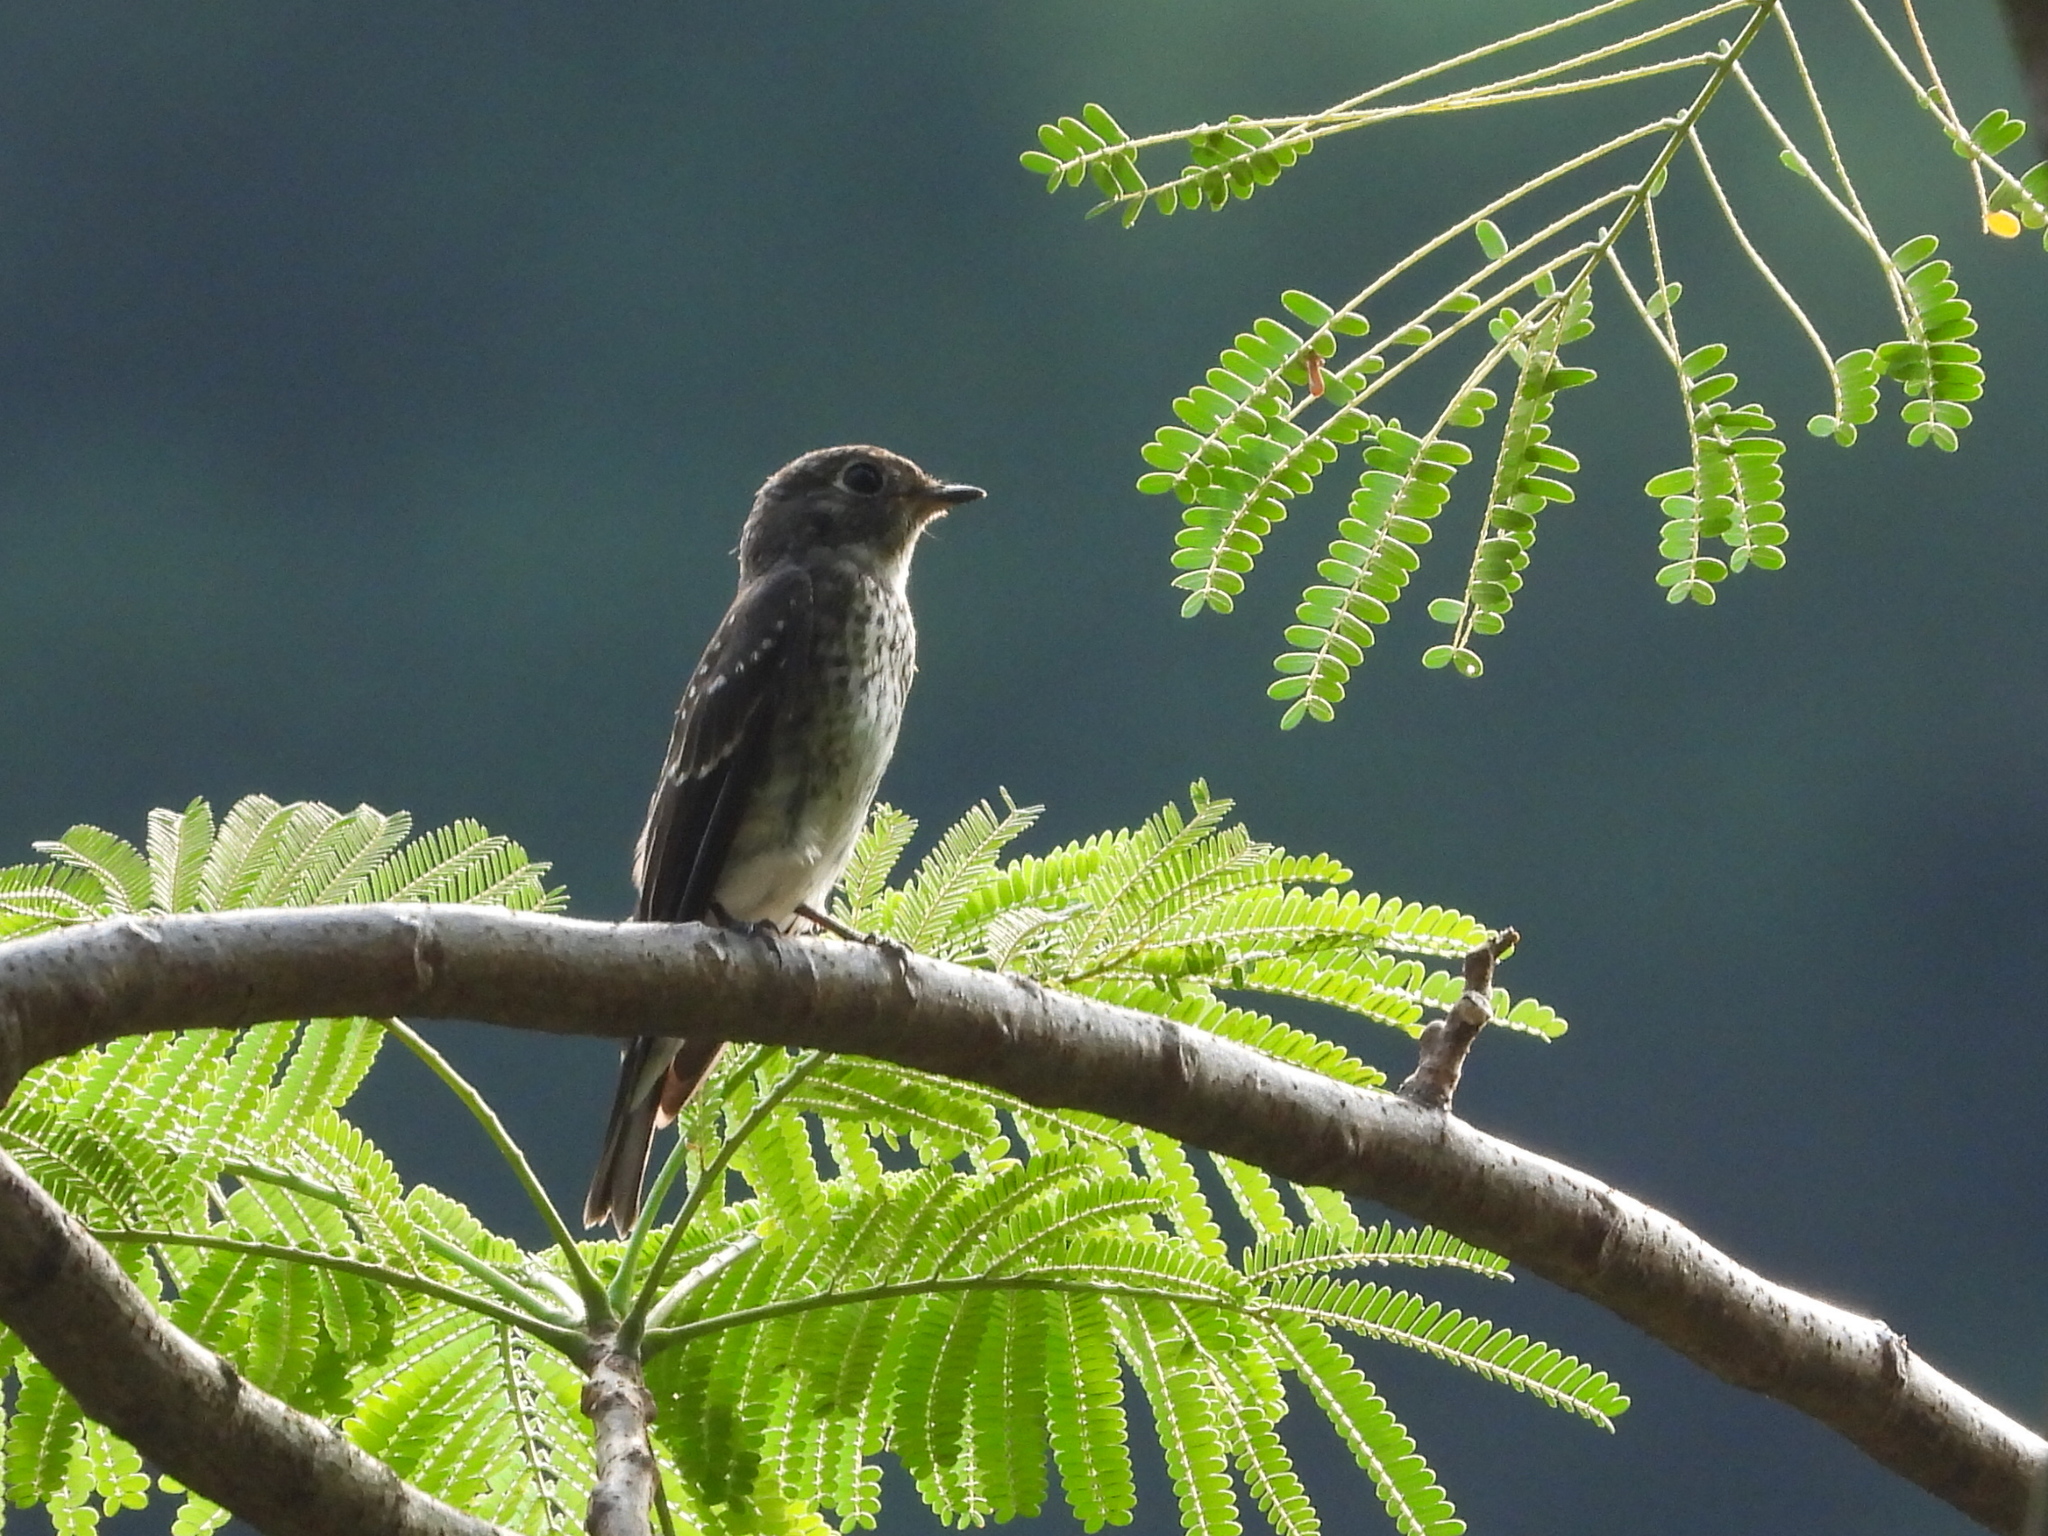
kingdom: Animalia
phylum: Chordata
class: Aves
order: Passeriformes
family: Muscicapidae
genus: Muscicapa
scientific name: Muscicapa sibirica
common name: Dark-sided flycatcher
